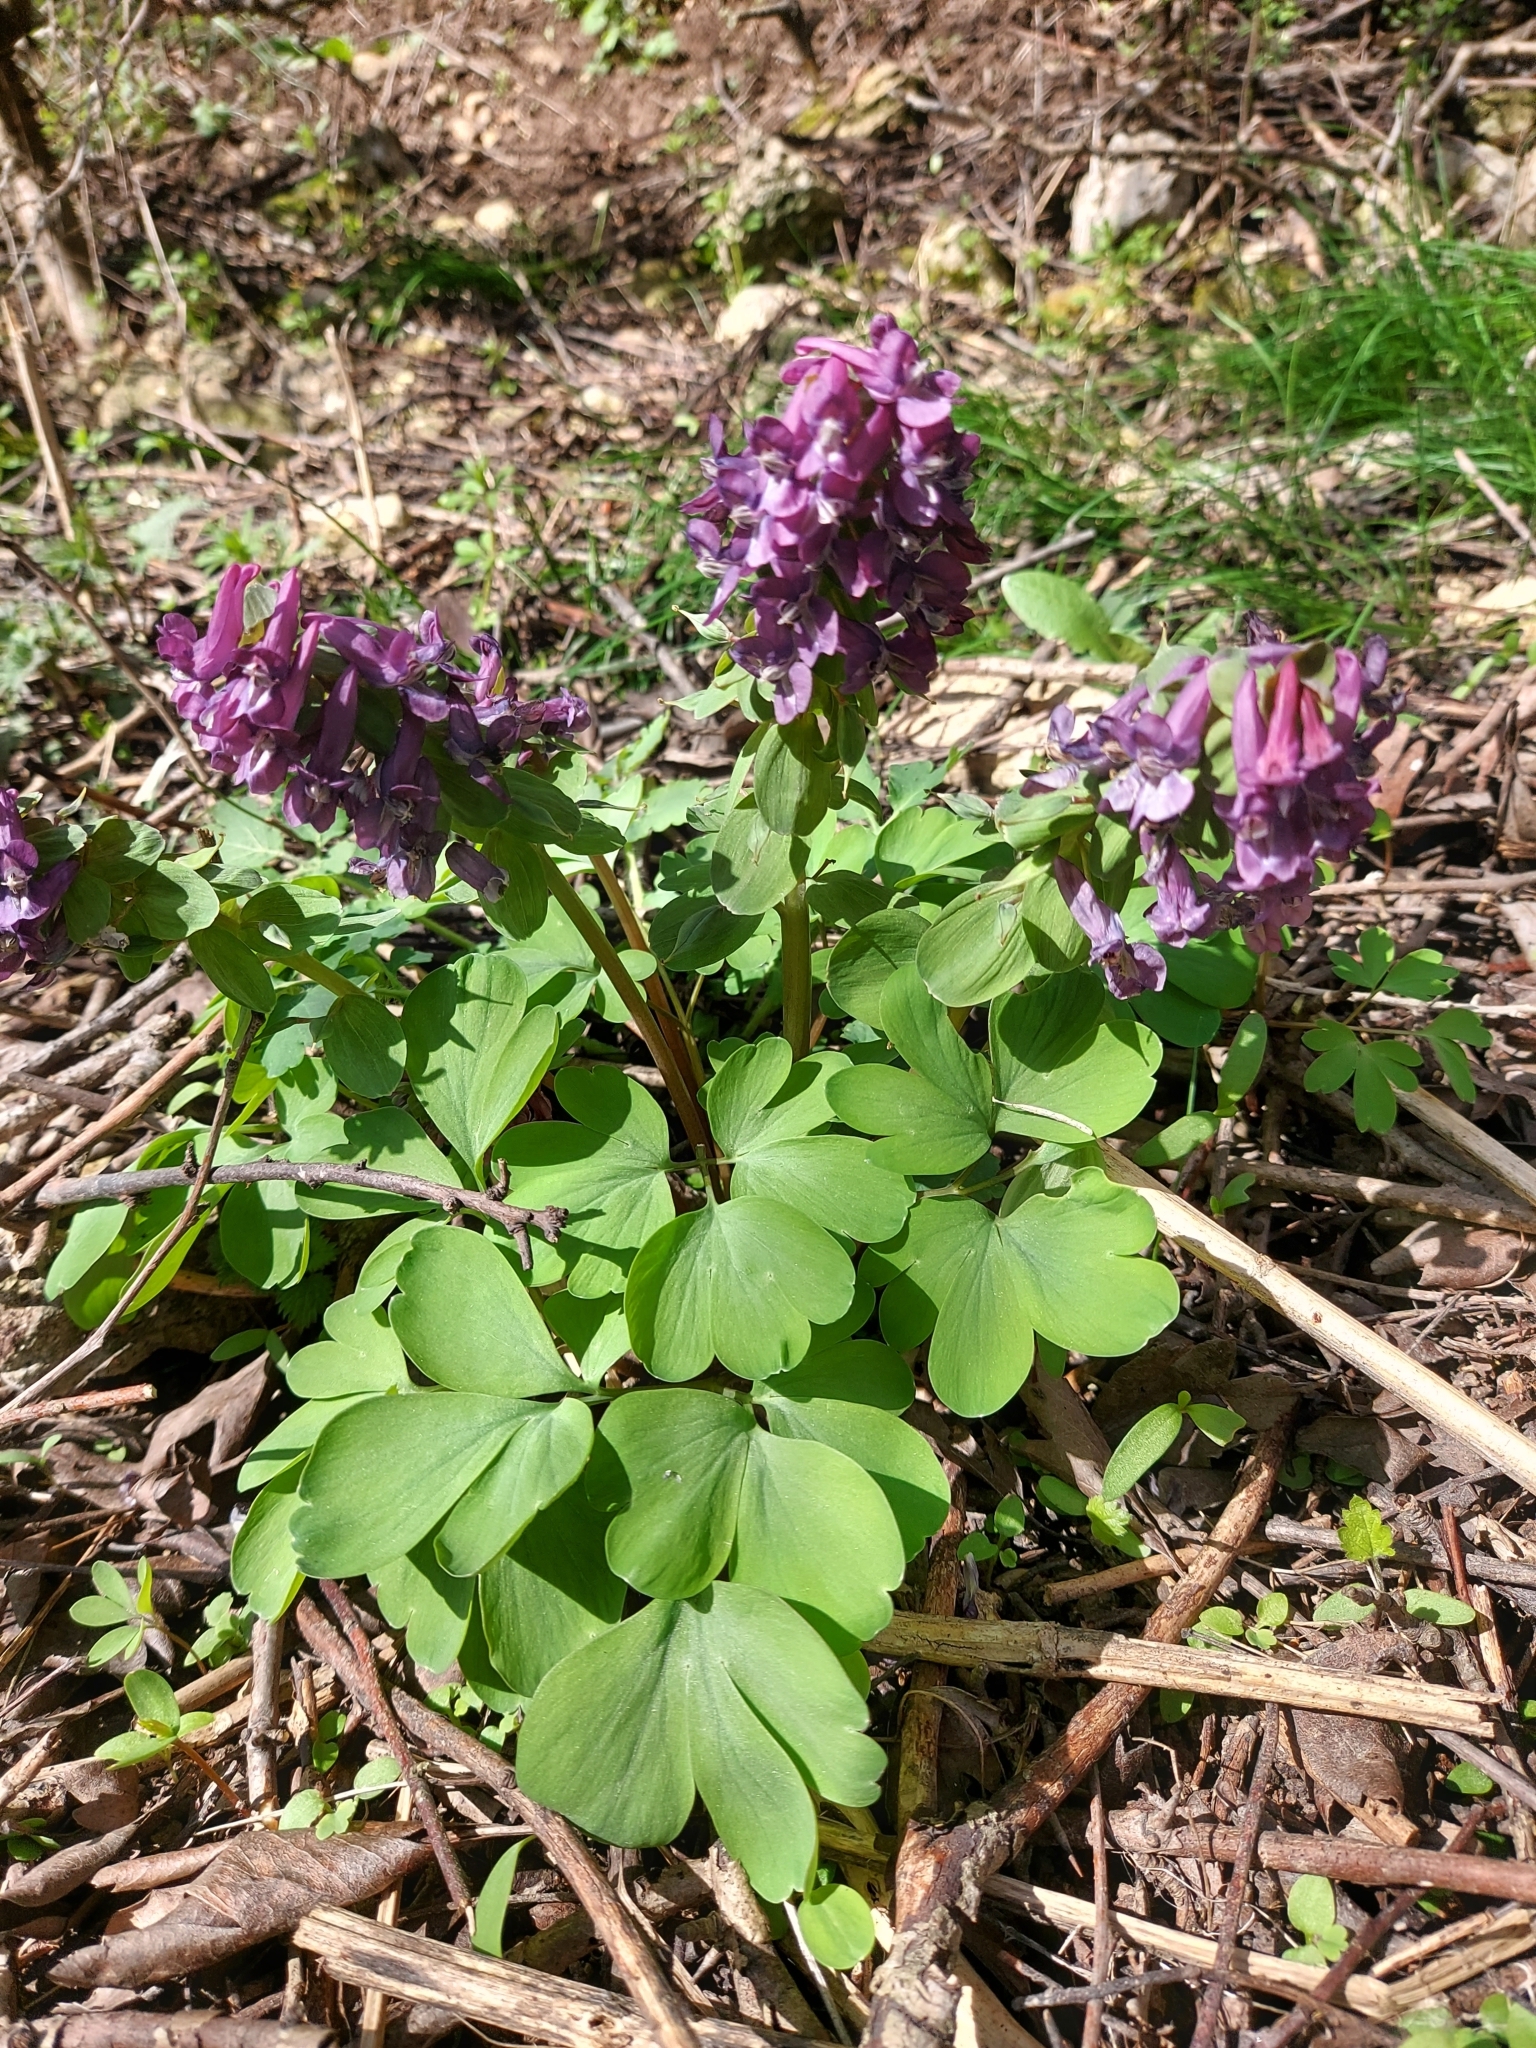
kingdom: Plantae
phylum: Tracheophyta
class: Magnoliopsida
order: Ranunculales
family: Papaveraceae
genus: Corydalis
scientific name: Corydalis cava
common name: Hollowroot
